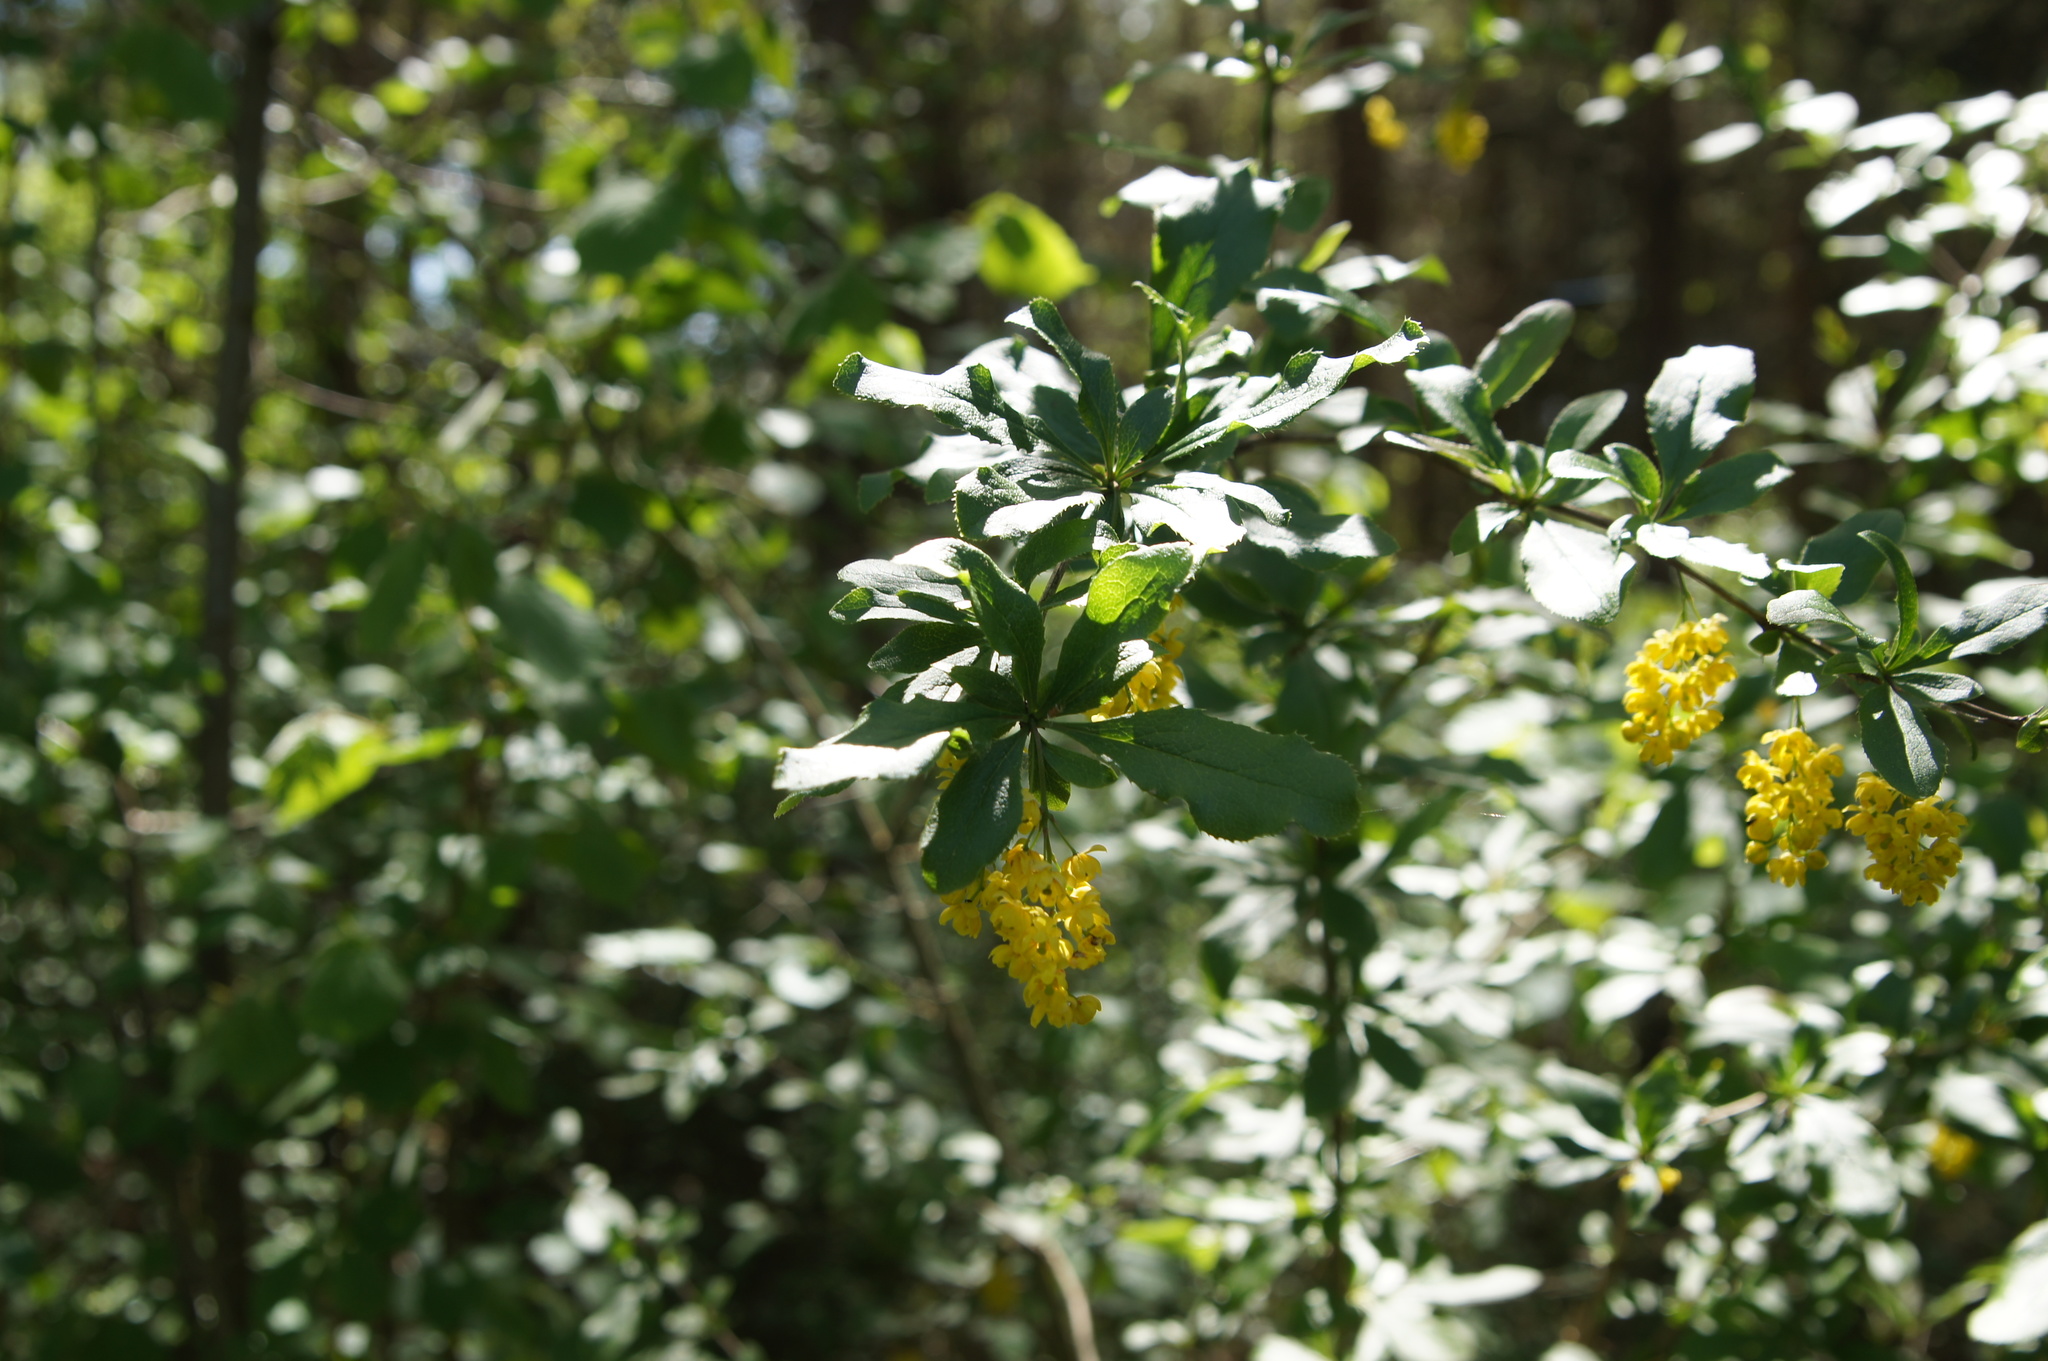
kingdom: Plantae
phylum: Tracheophyta
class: Magnoliopsida
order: Ranunculales
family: Berberidaceae
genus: Berberis
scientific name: Berberis vulgaris
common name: Barberry
